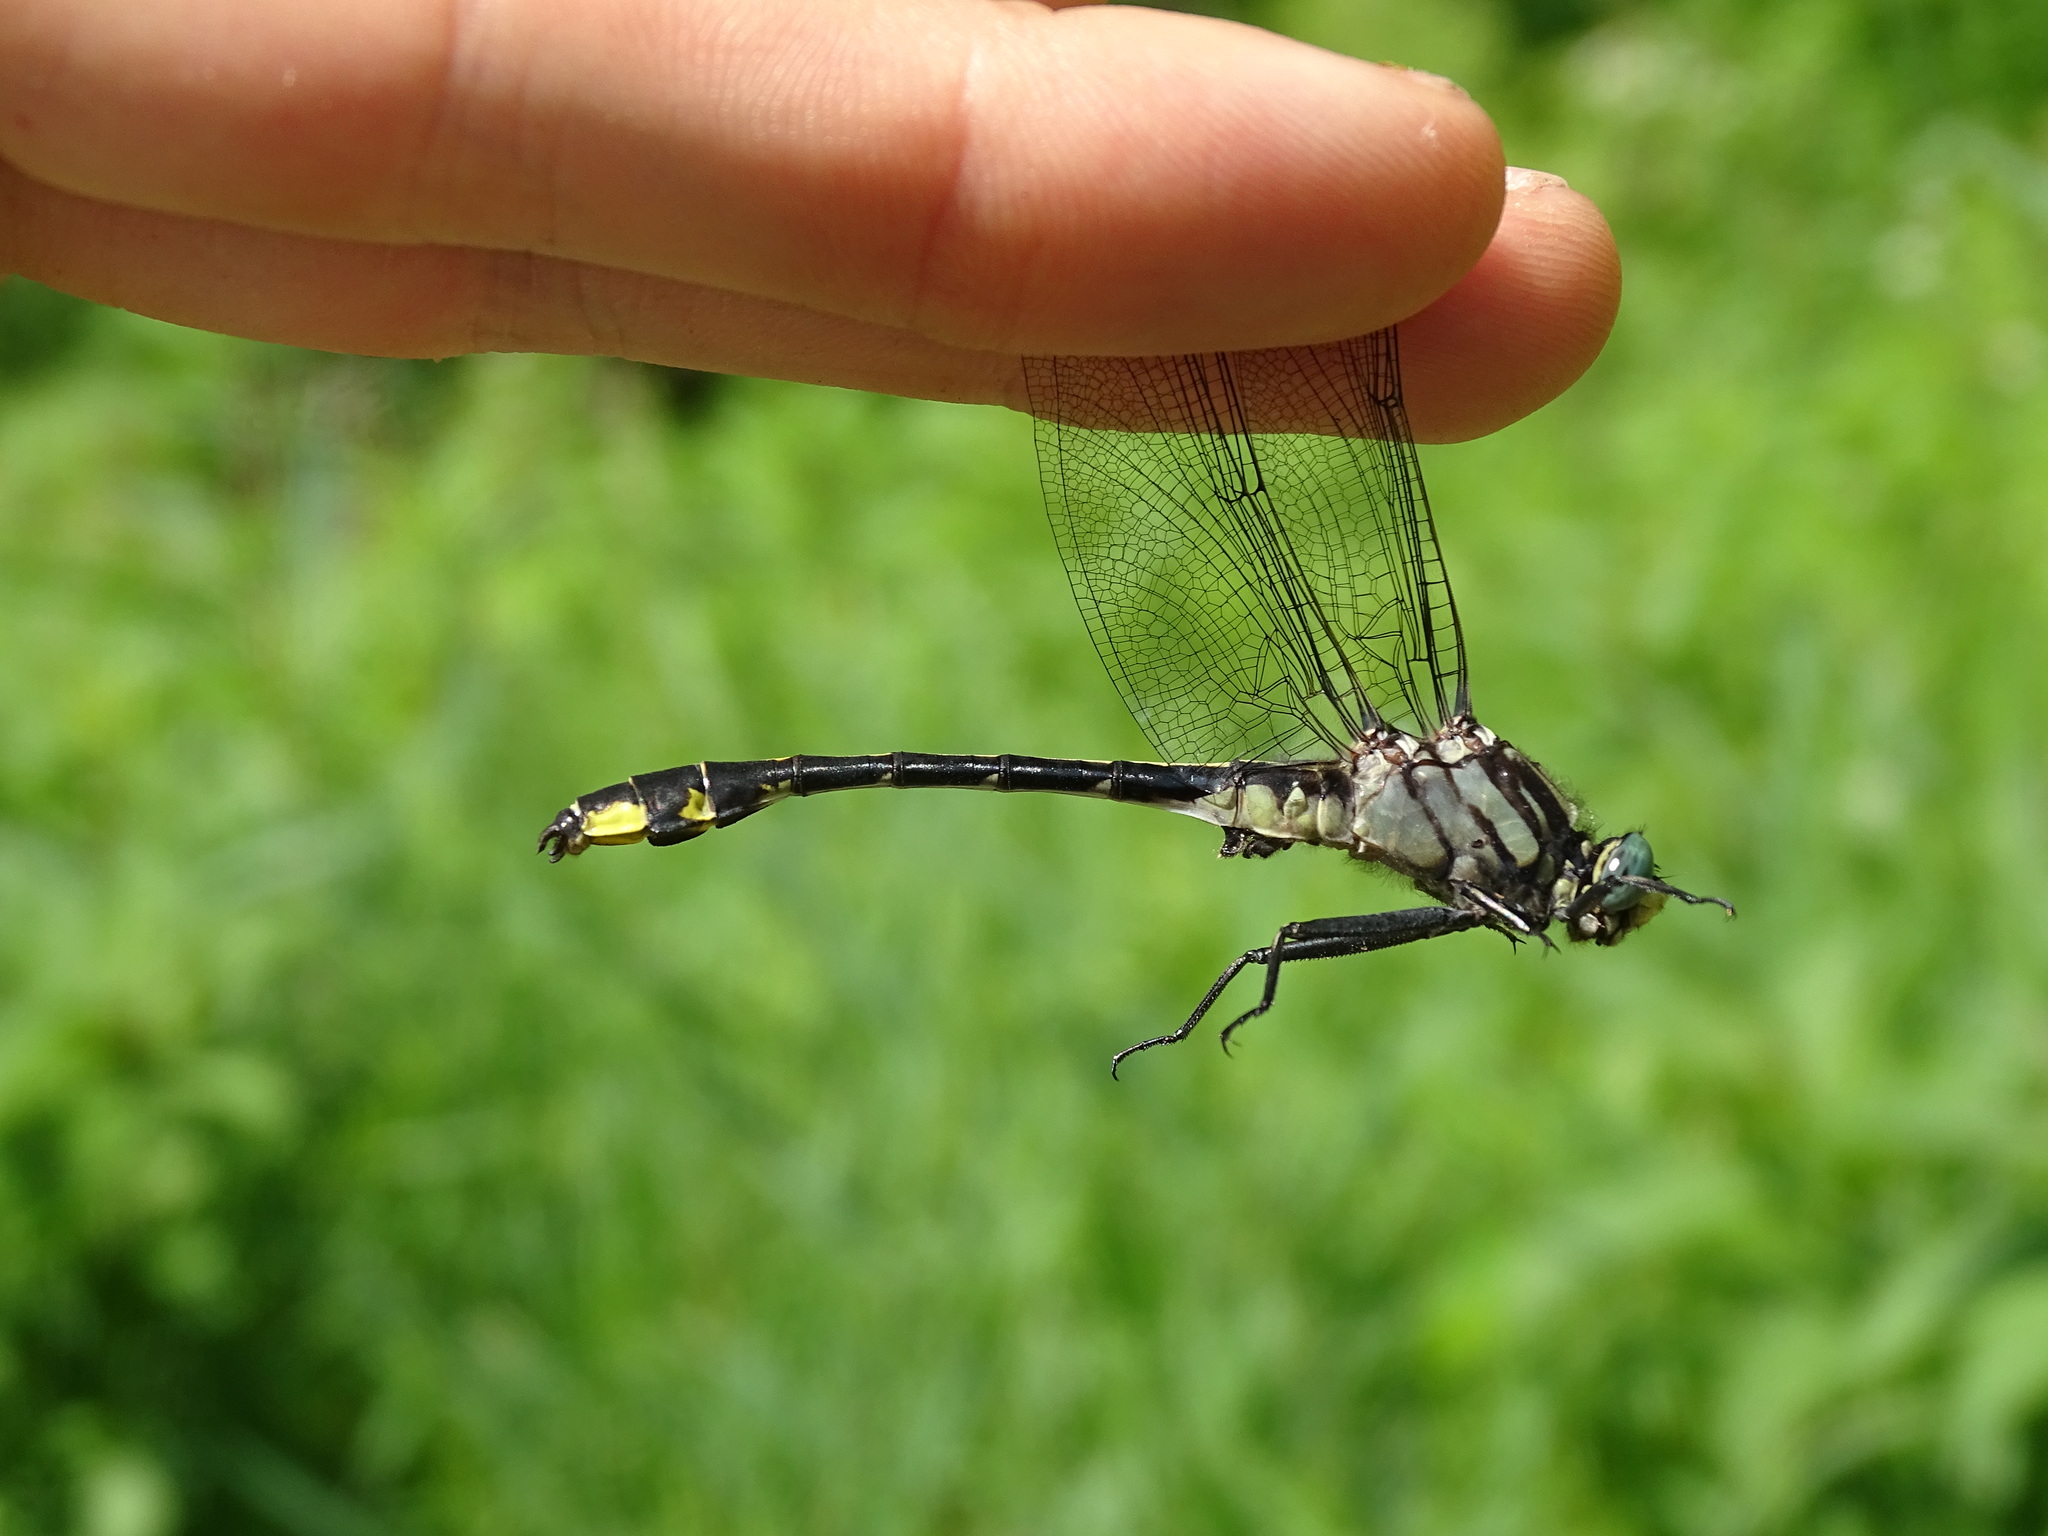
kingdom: Animalia
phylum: Arthropoda
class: Insecta
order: Odonata
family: Gomphidae
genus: Gomphurus
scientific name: Gomphurus fraternus
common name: Midland clubtail
